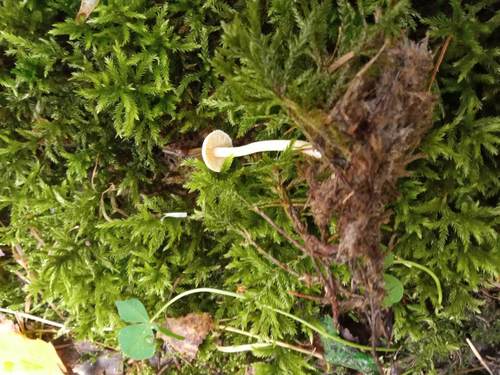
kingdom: Fungi
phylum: Basidiomycota
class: Agaricomycetes
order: Agaricales
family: Mycenaceae
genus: Mycena
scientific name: Mycena
